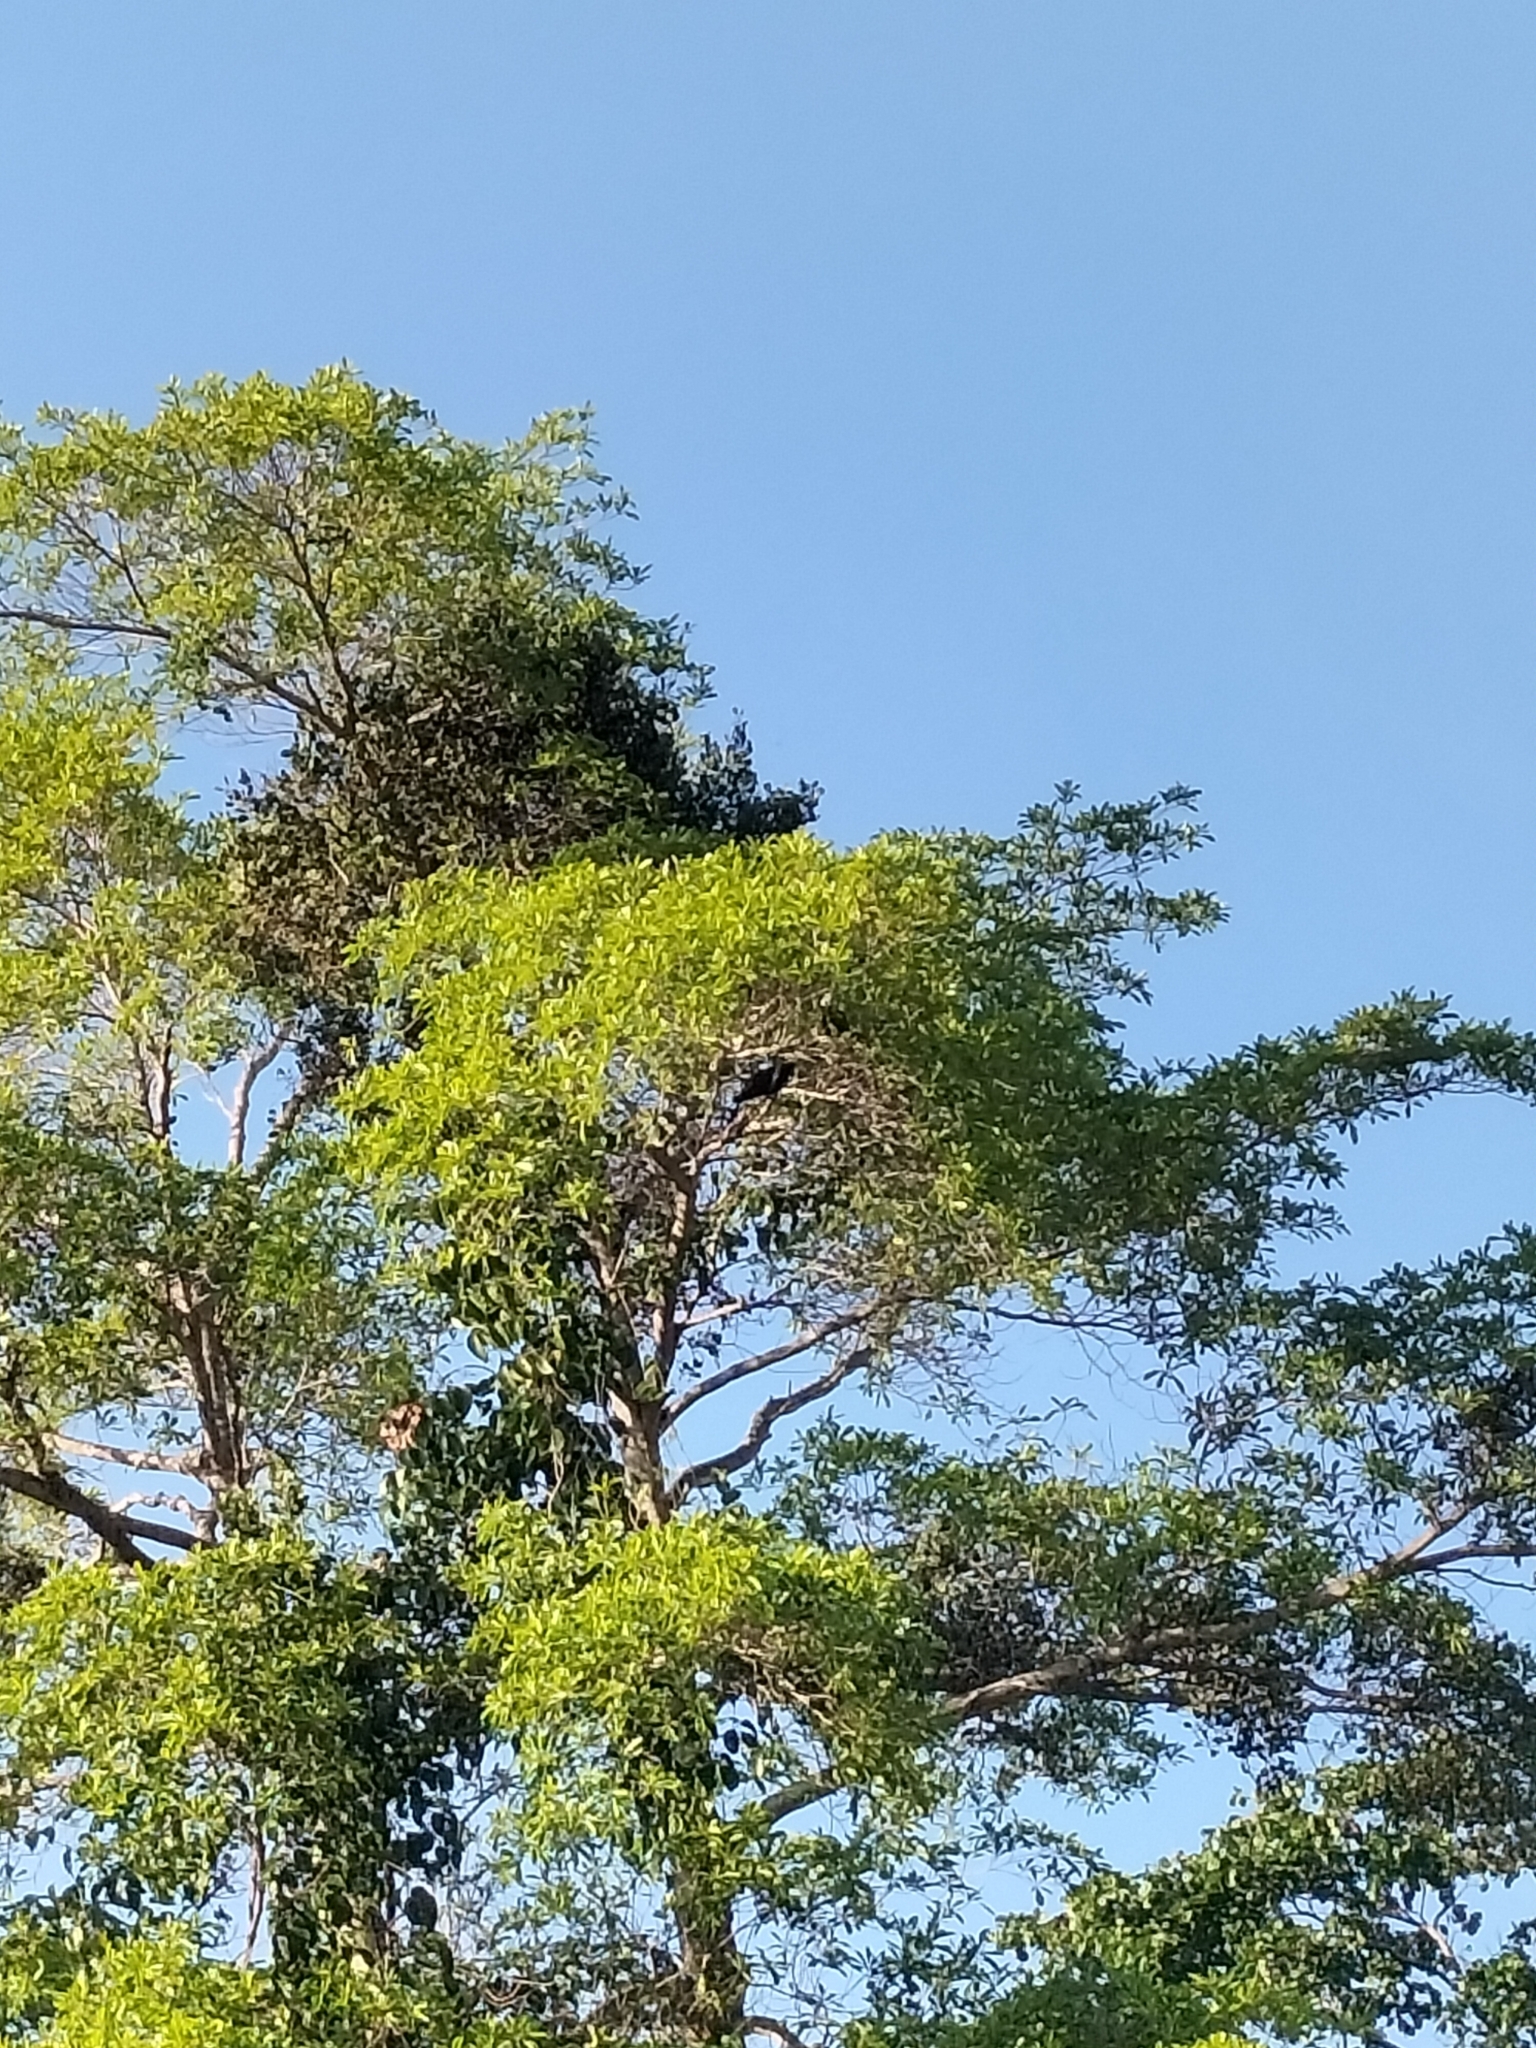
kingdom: Animalia
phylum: Chordata
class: Aves
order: Cuculiformes
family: Cuculidae
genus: Eudynamys
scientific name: Eudynamys orientalis
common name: Pacific koel
